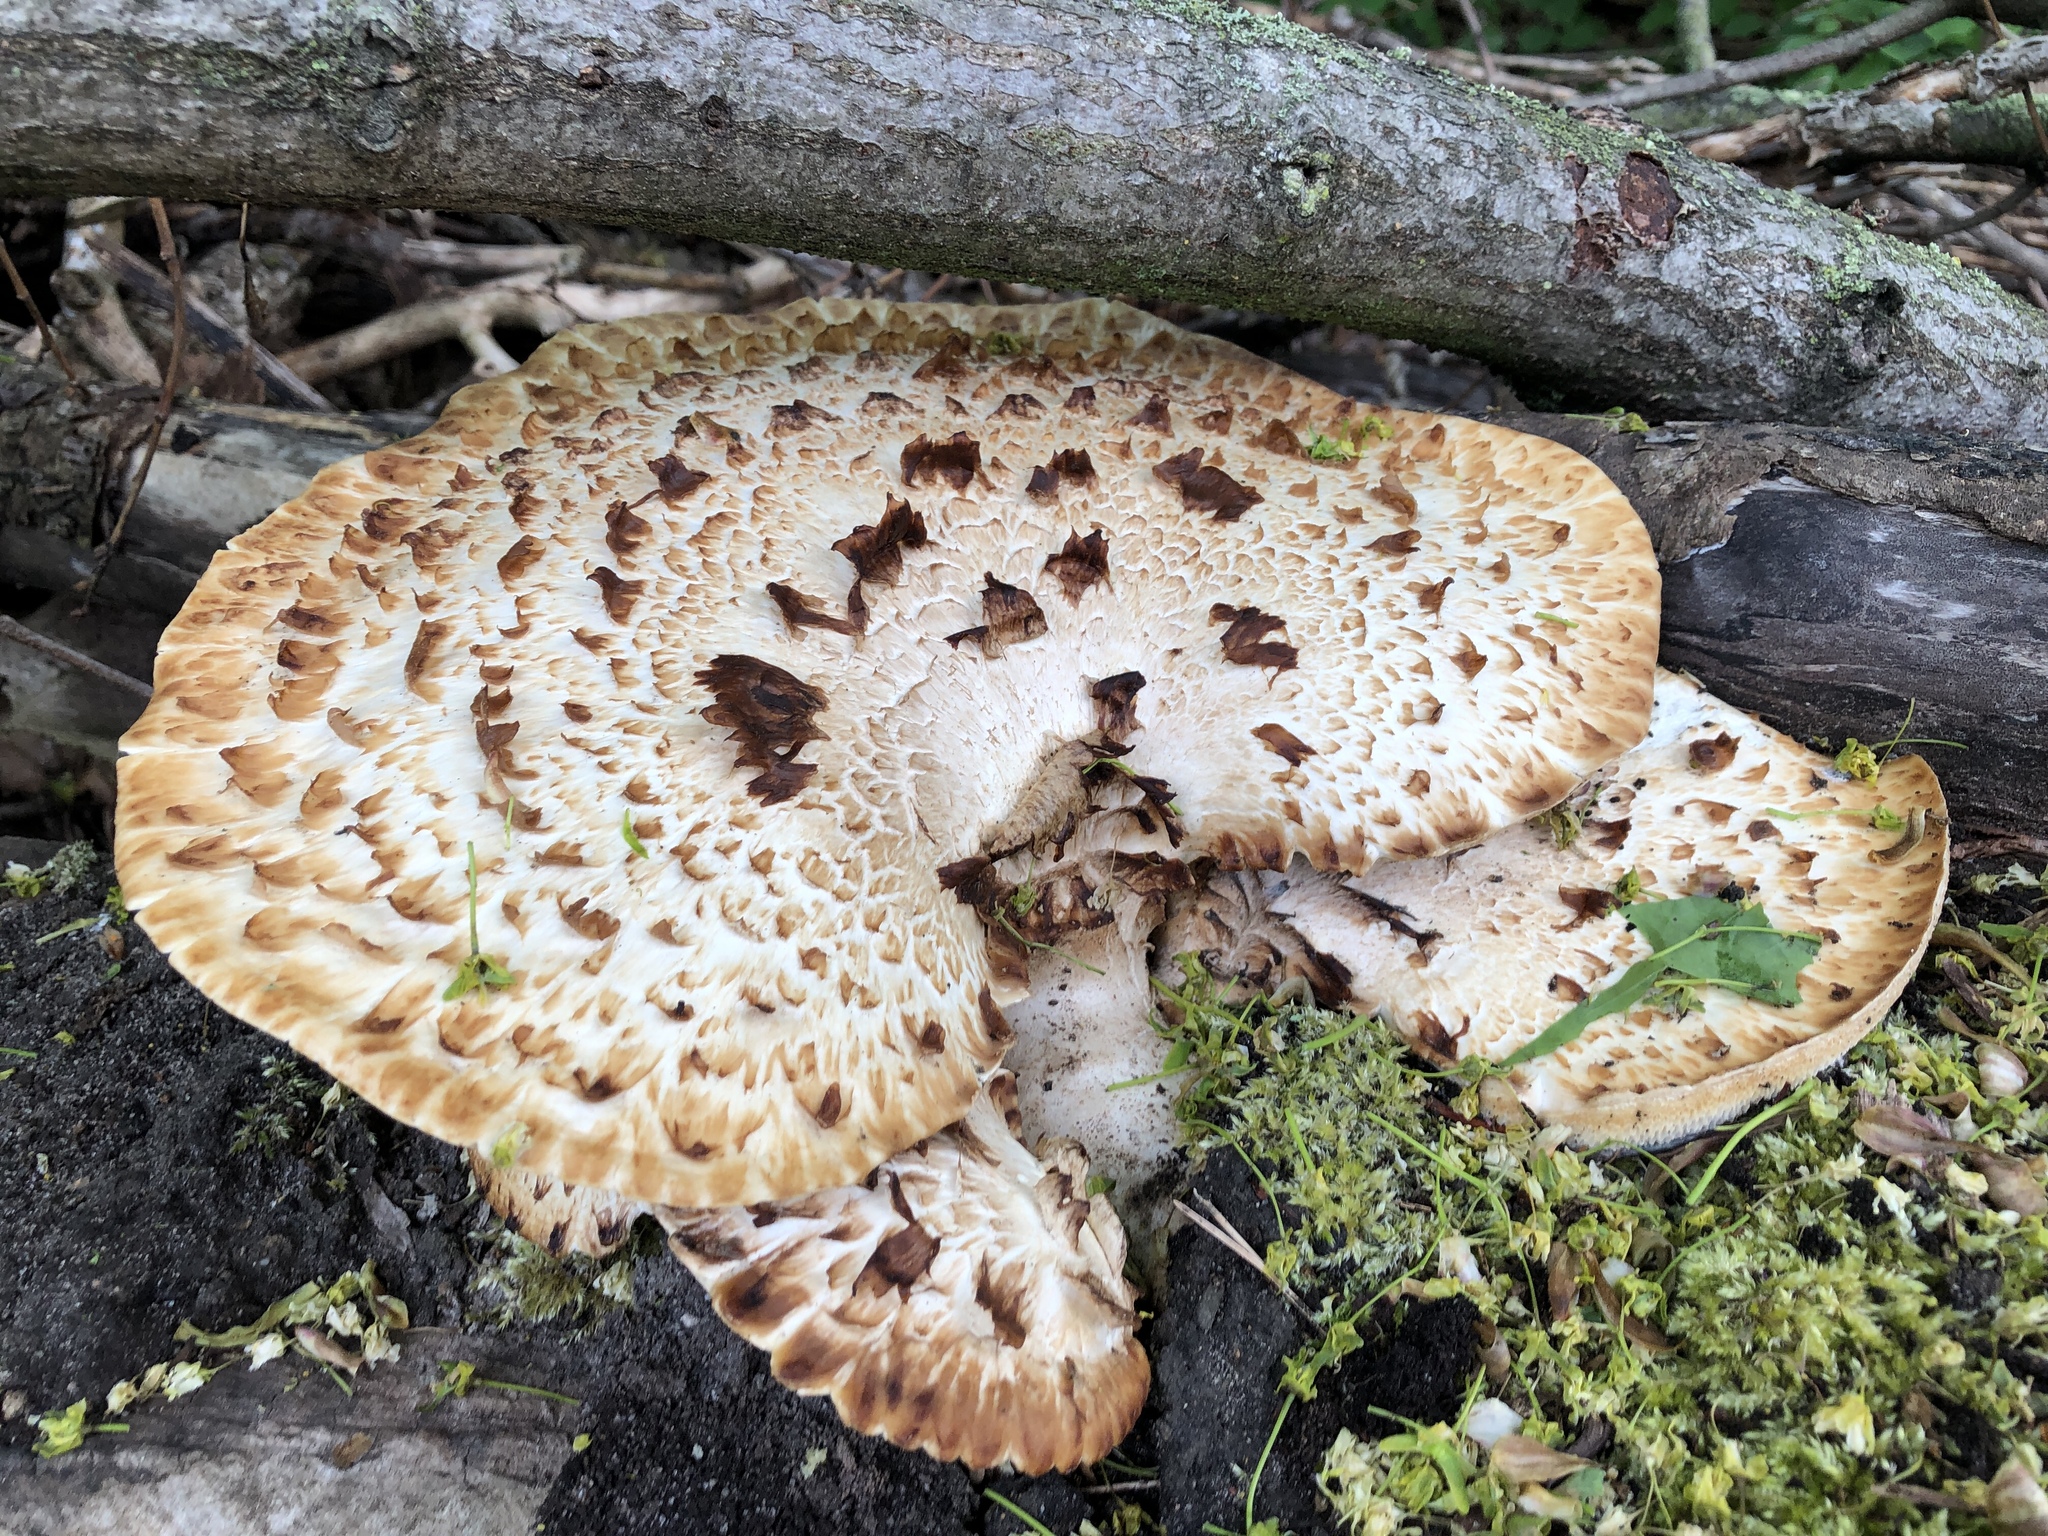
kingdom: Fungi
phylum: Basidiomycota
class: Agaricomycetes
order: Polyporales
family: Polyporaceae
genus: Cerioporus
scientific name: Cerioporus squamosus
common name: Dryad's saddle
